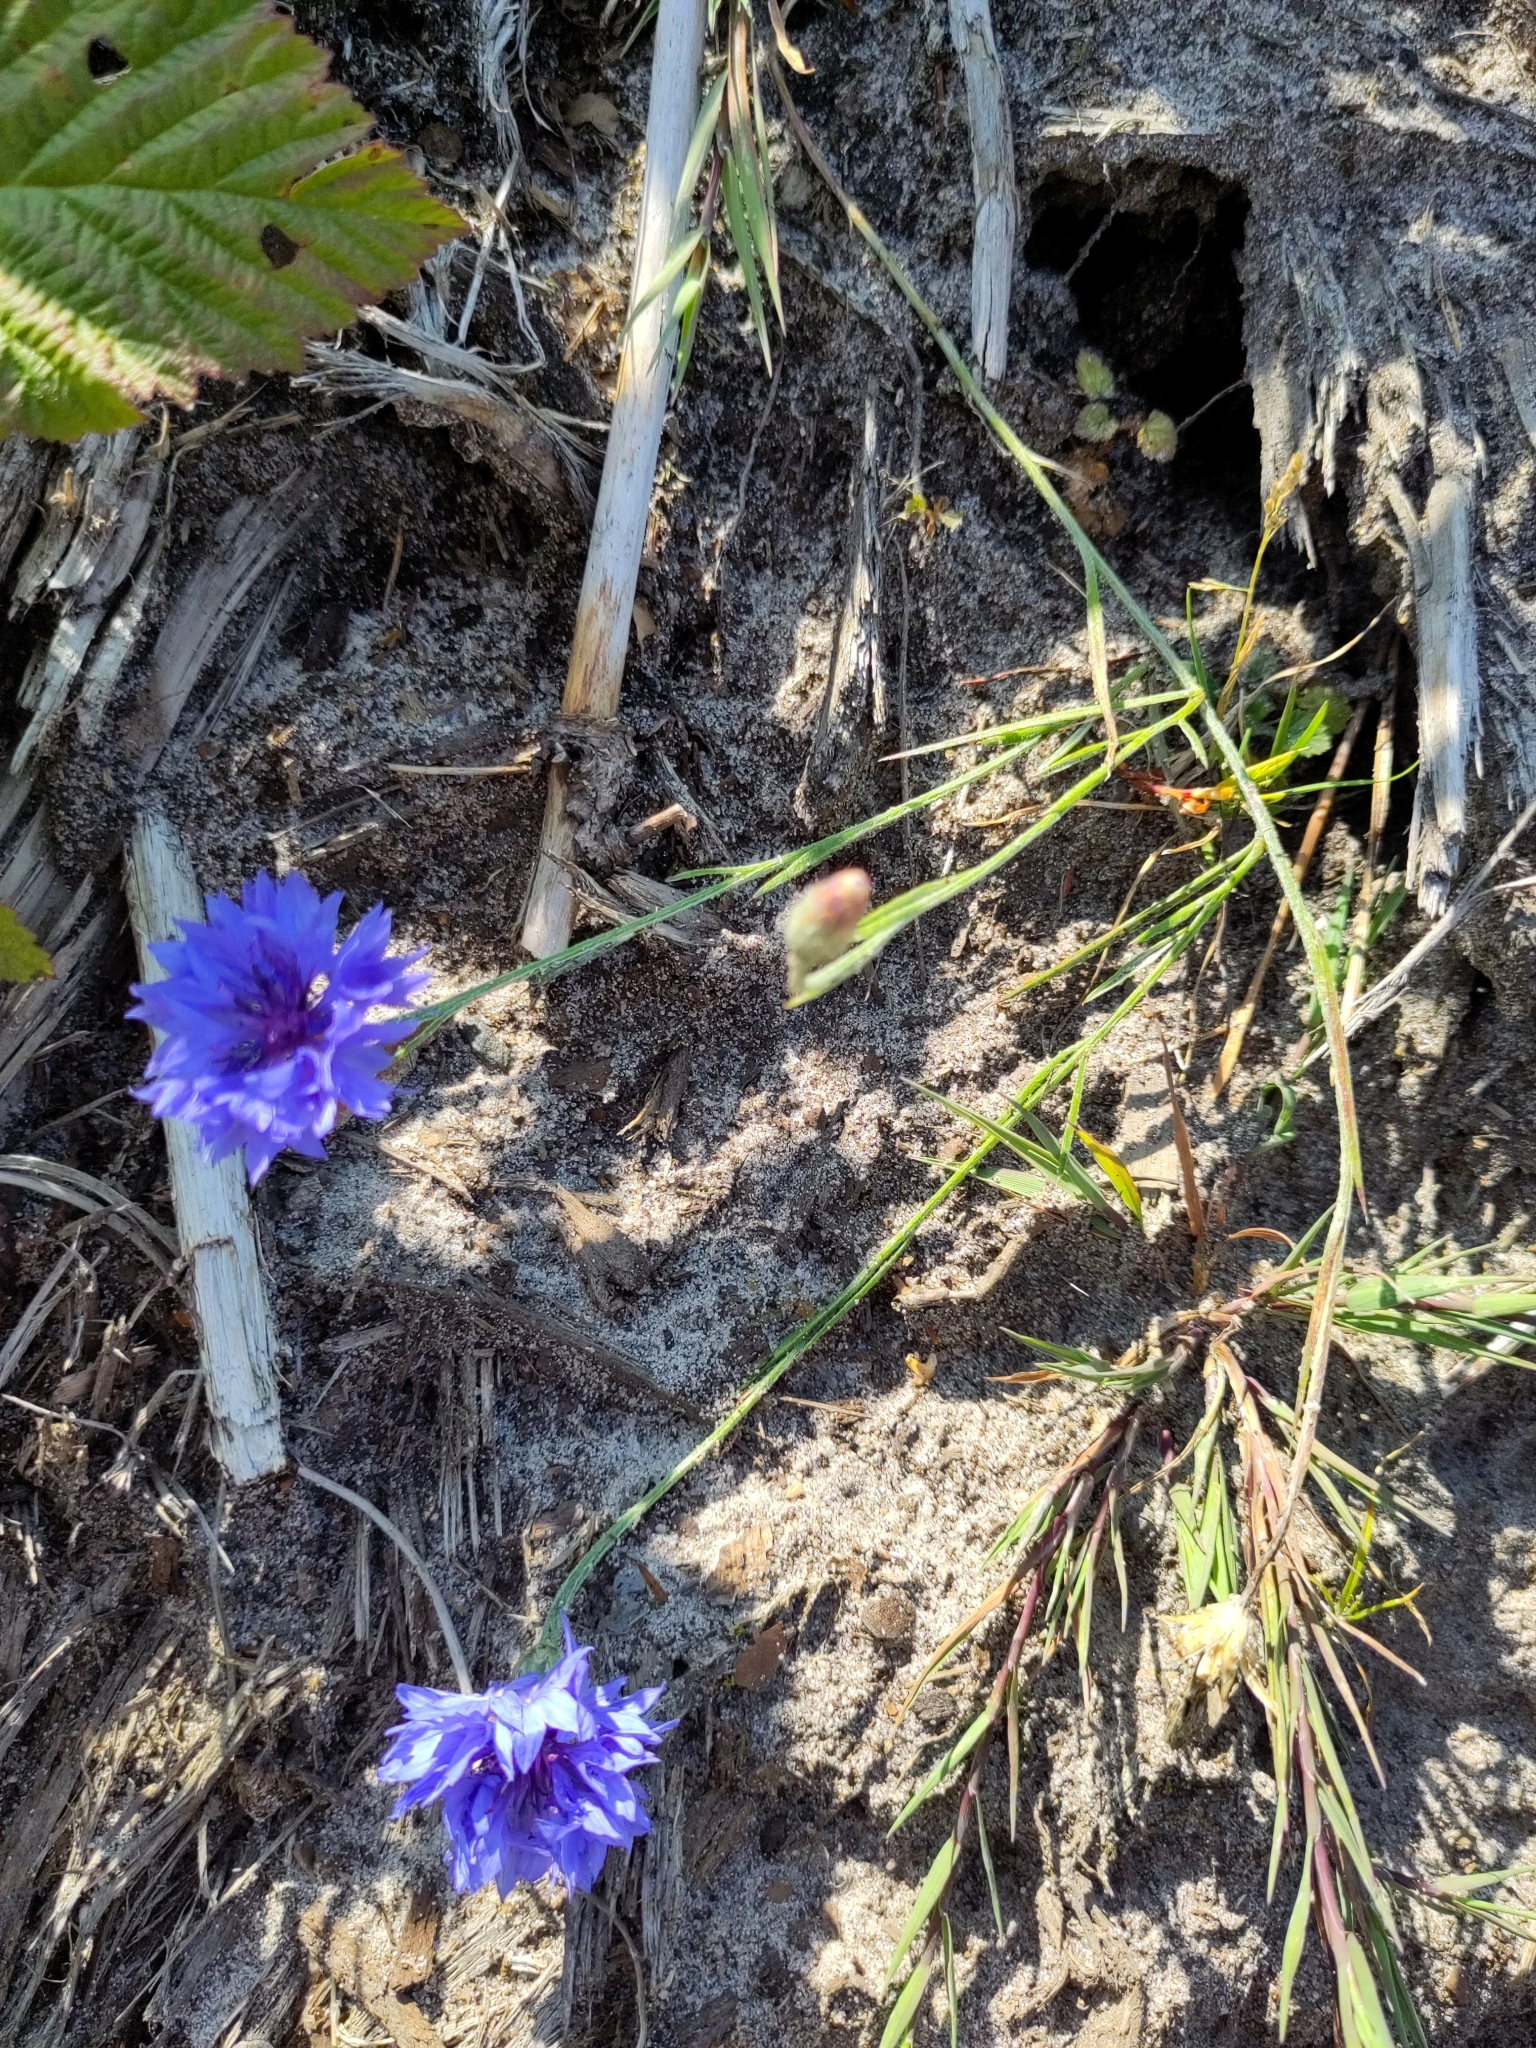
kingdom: Plantae
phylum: Tracheophyta
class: Magnoliopsida
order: Asterales
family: Asteraceae
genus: Centaurea
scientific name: Centaurea cyanus
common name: Cornflower
